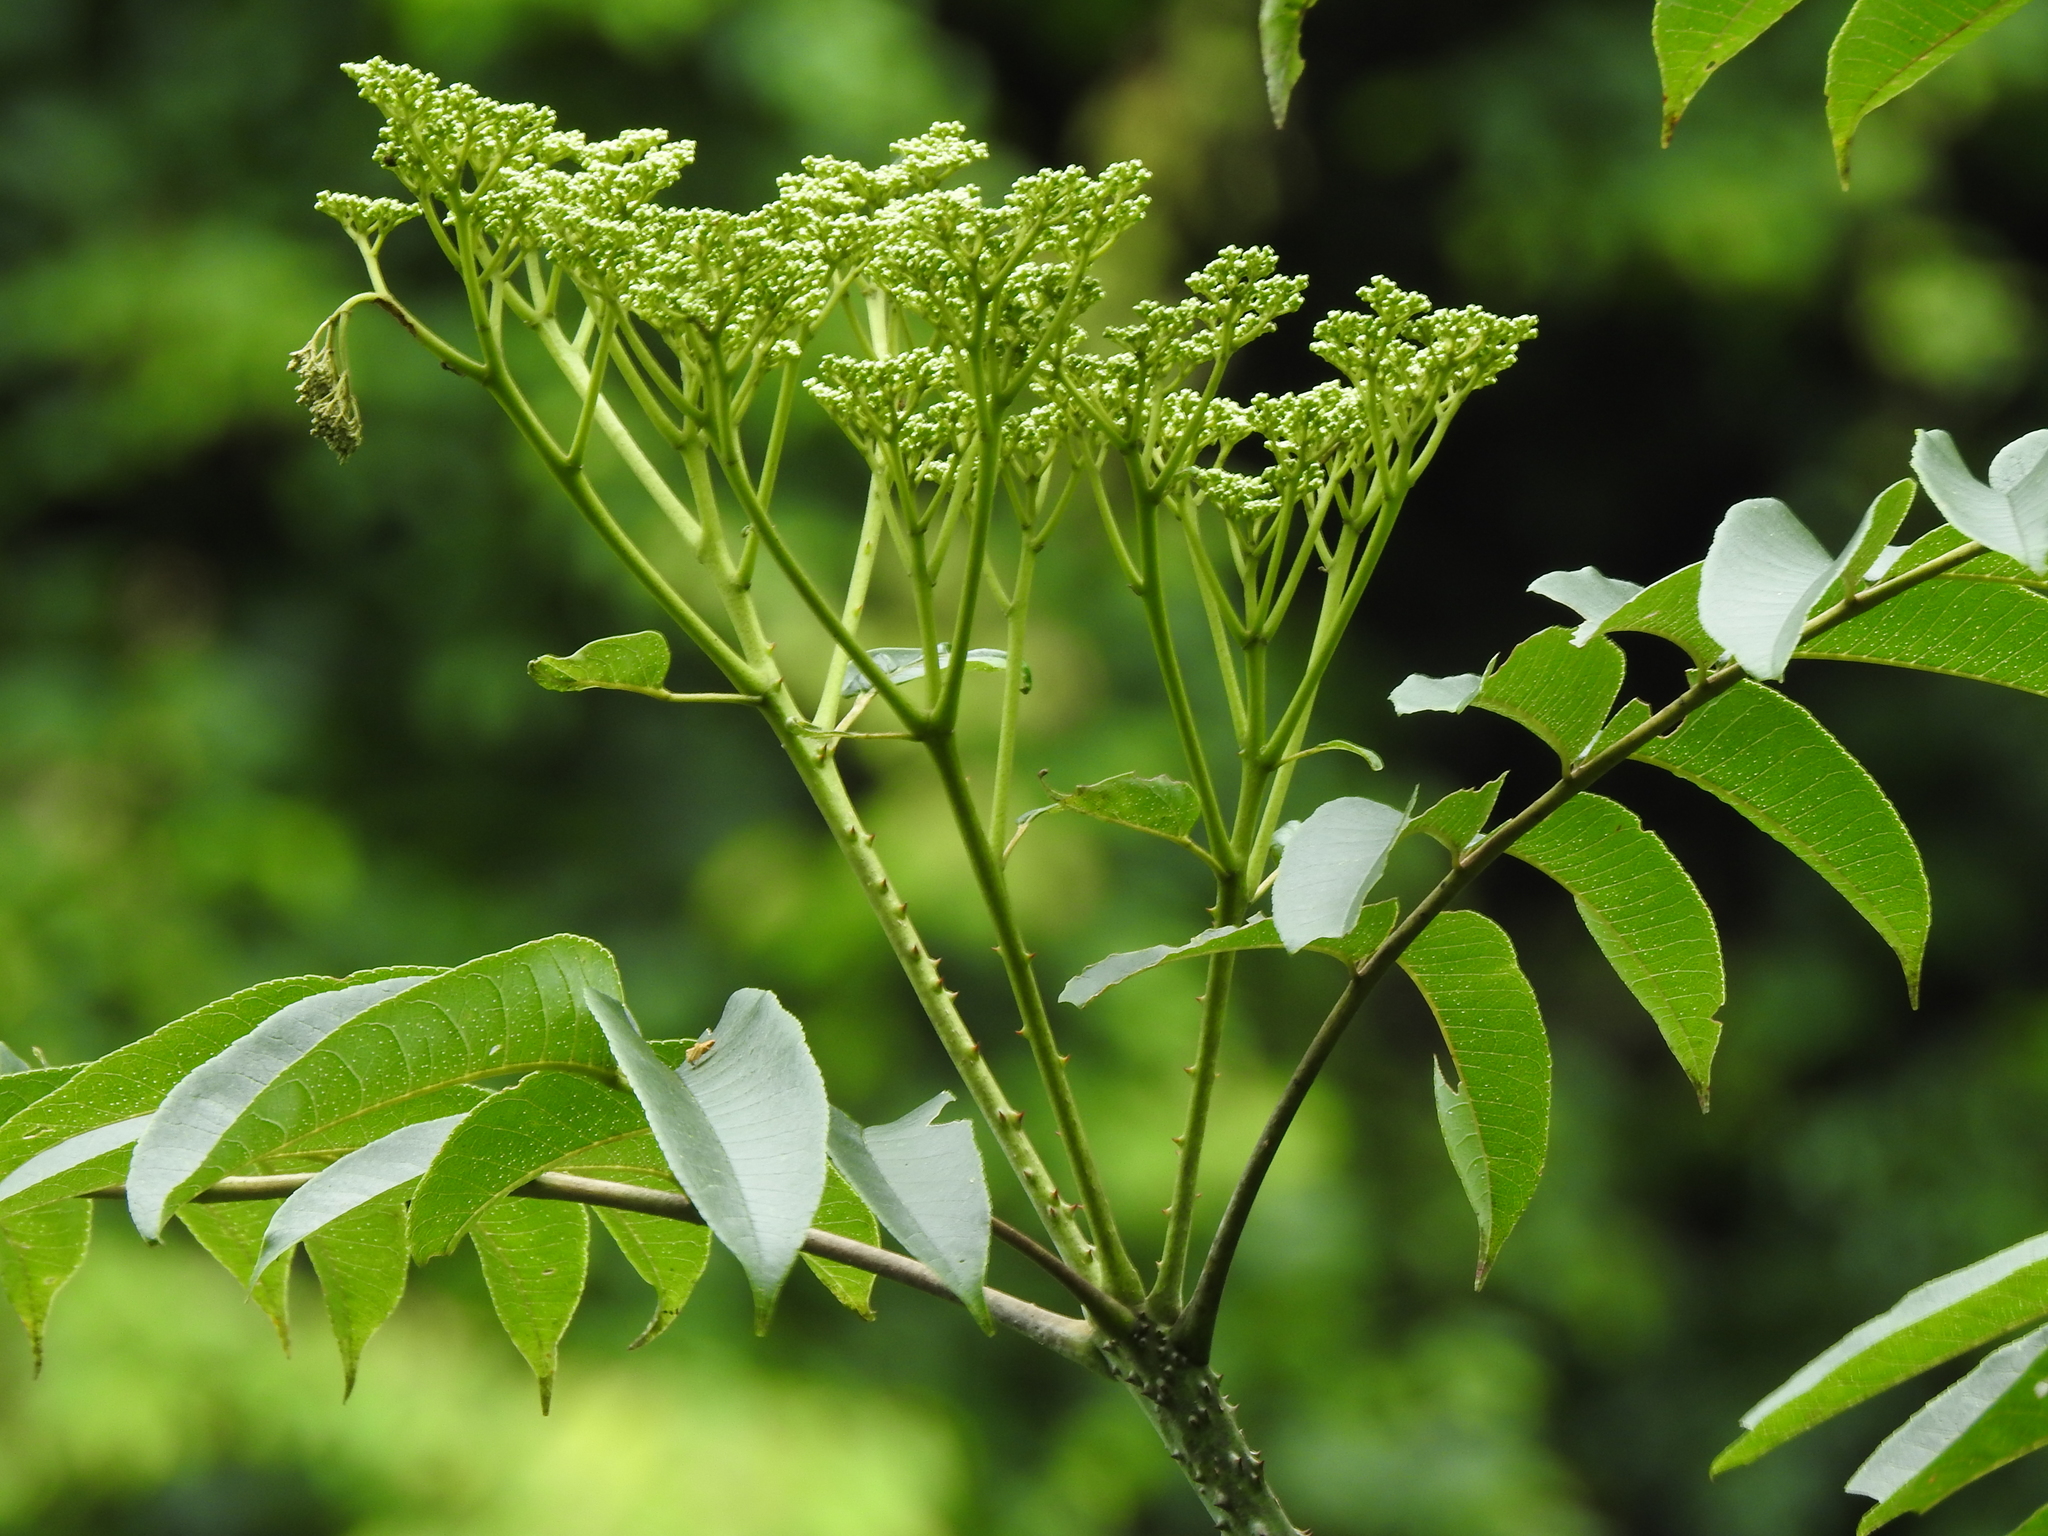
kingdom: Plantae
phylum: Tracheophyta
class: Magnoliopsida
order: Sapindales
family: Rutaceae
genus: Zanthoxylum
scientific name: Zanthoxylum ailanthoides
